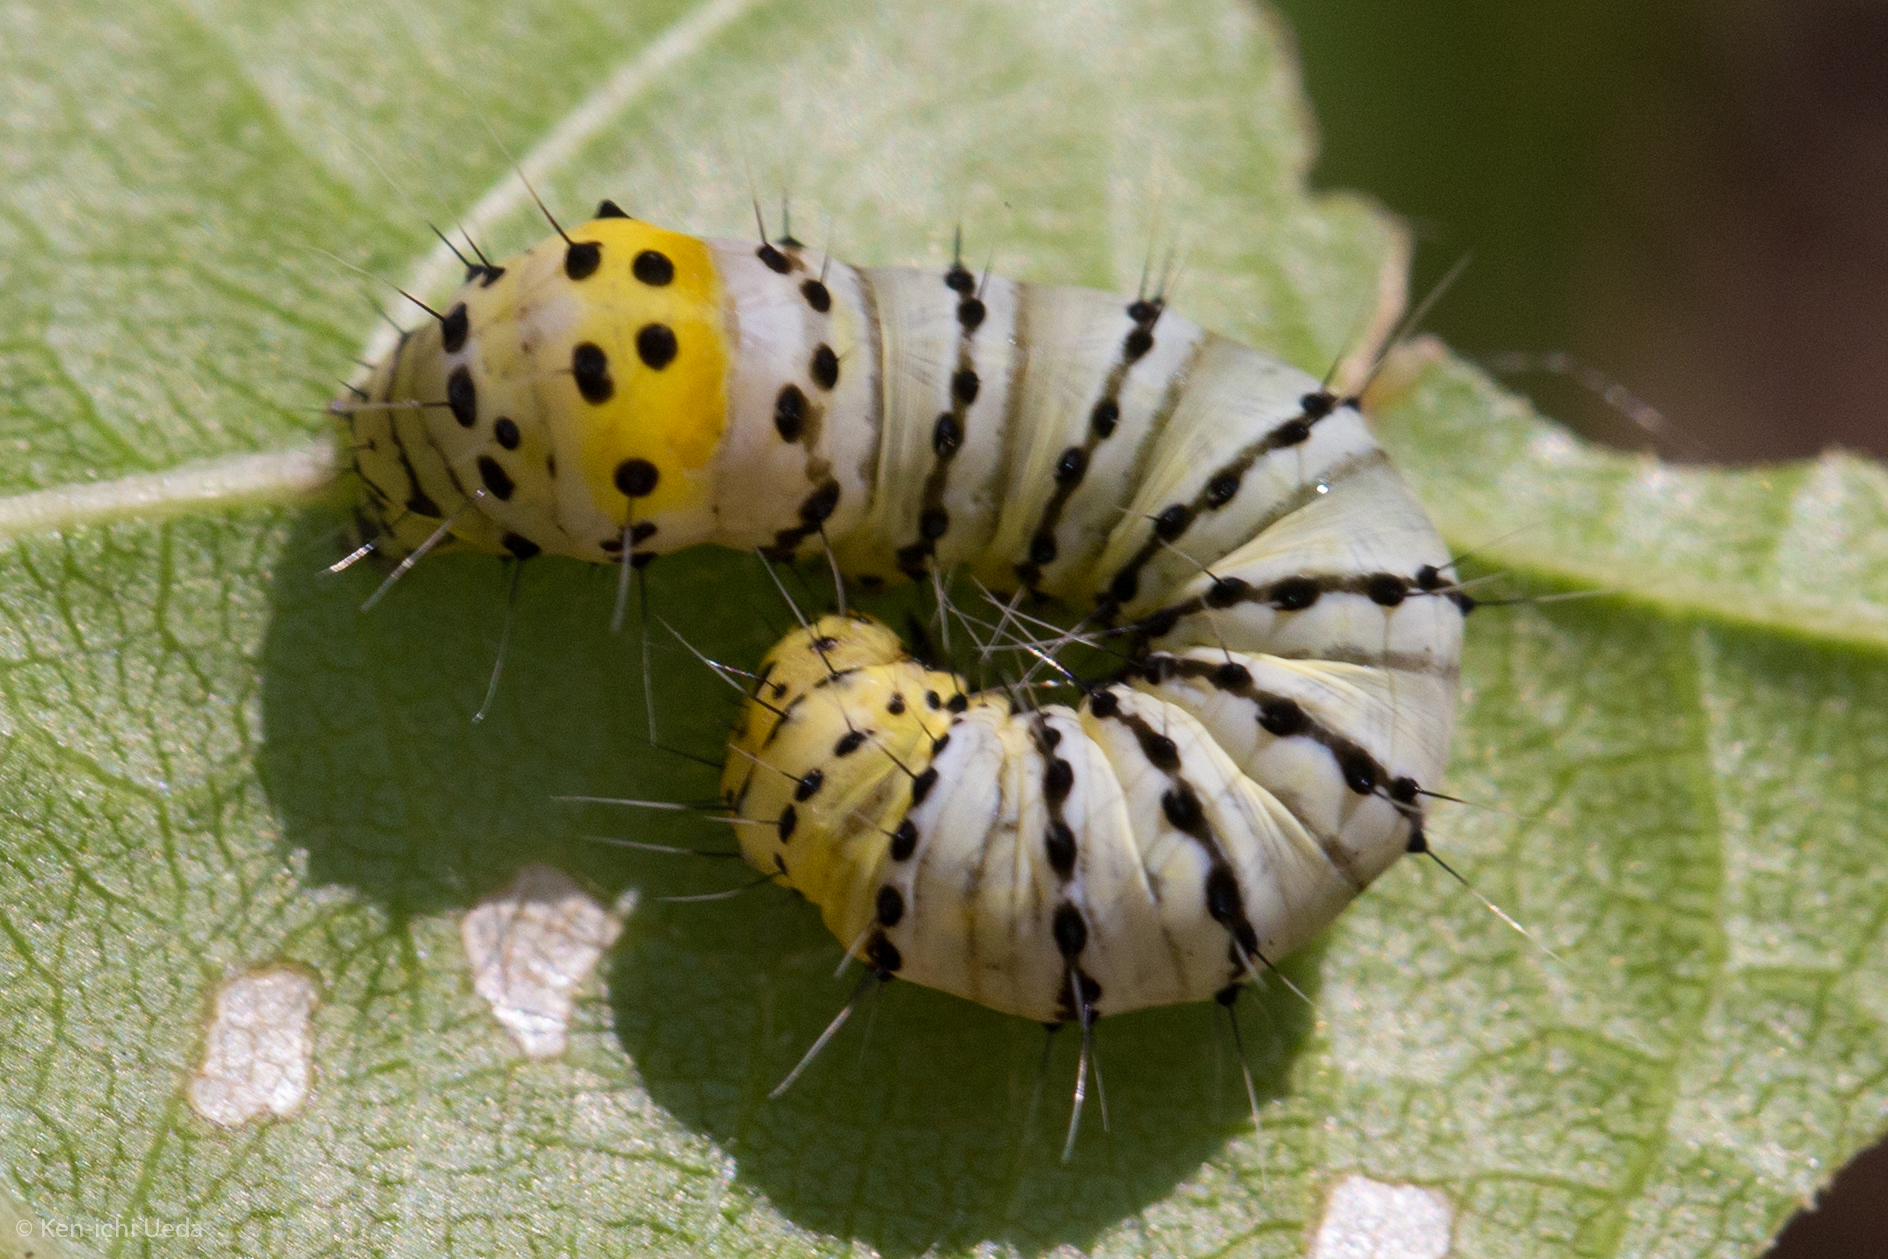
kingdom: Animalia
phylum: Arthropoda
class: Insecta
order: Lepidoptera
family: Noctuidae
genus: Gerrodes
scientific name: Gerrodes minatea
